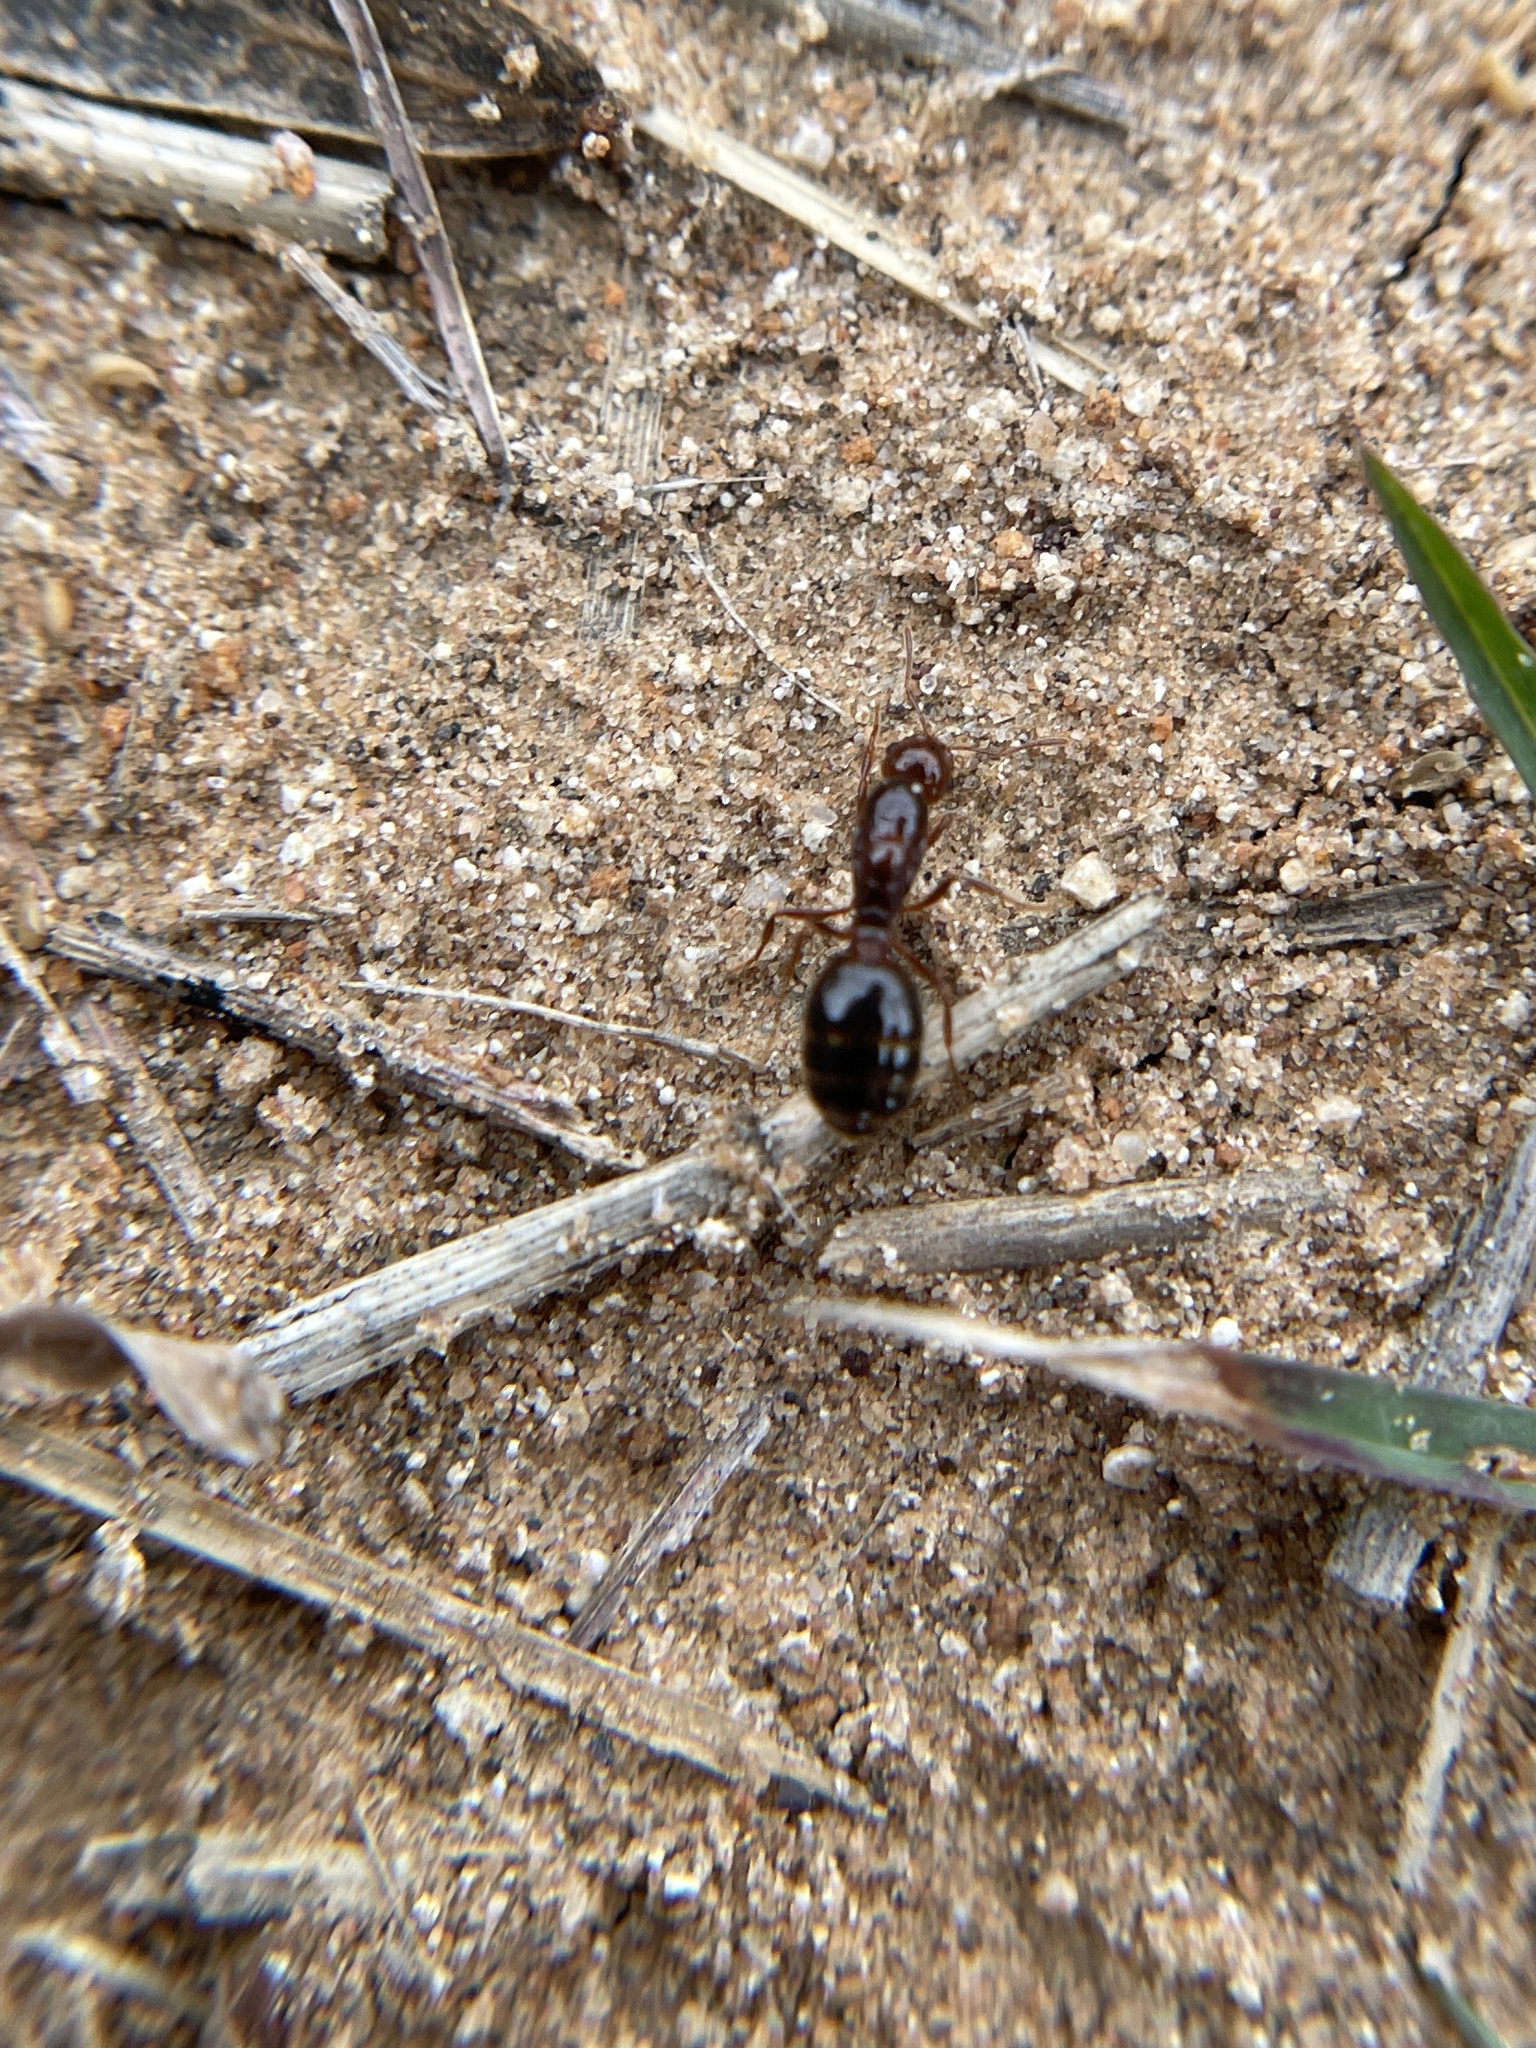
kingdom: Animalia
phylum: Arthropoda
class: Insecta
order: Hymenoptera
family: Formicidae
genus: Solenopsis
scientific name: Solenopsis invicta
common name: Red imported fire ant
